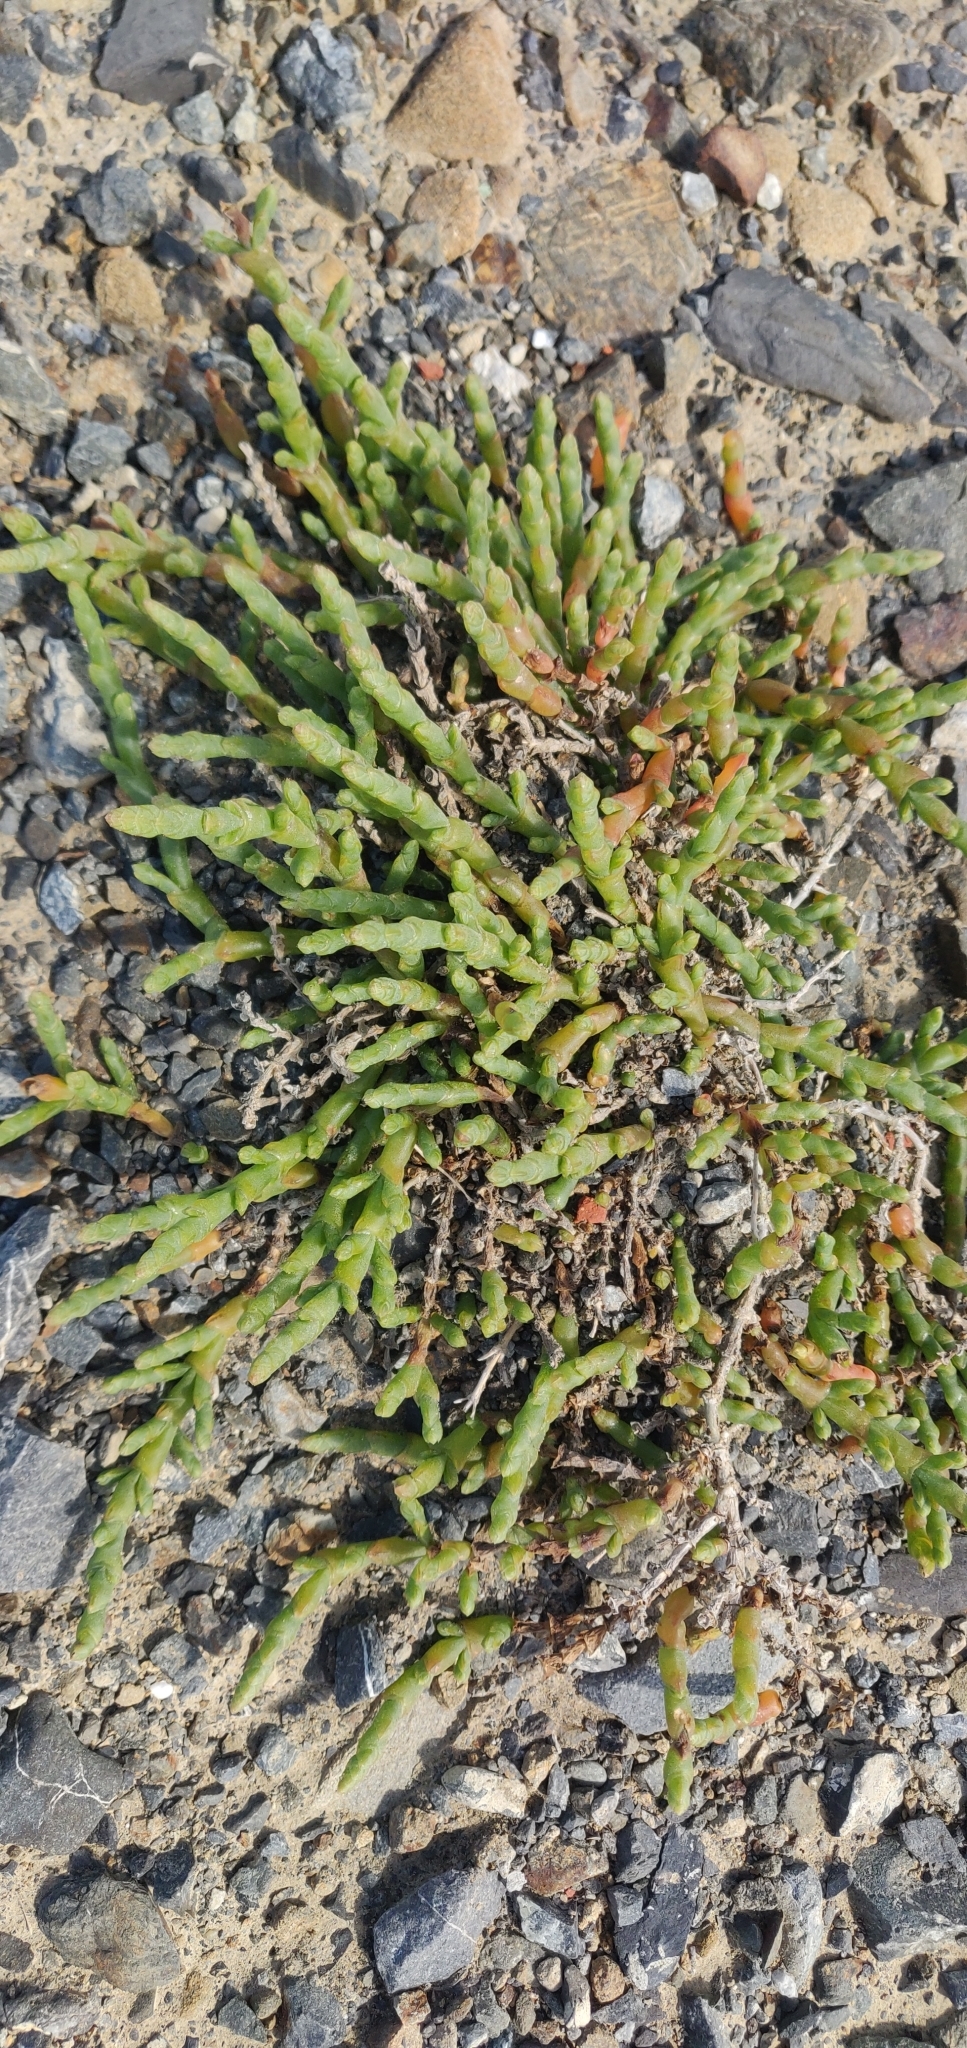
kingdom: Plantae
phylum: Tracheophyta
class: Magnoliopsida
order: Caryophyllales
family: Amaranthaceae
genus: Salicornia
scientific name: Salicornia quinqueflora
